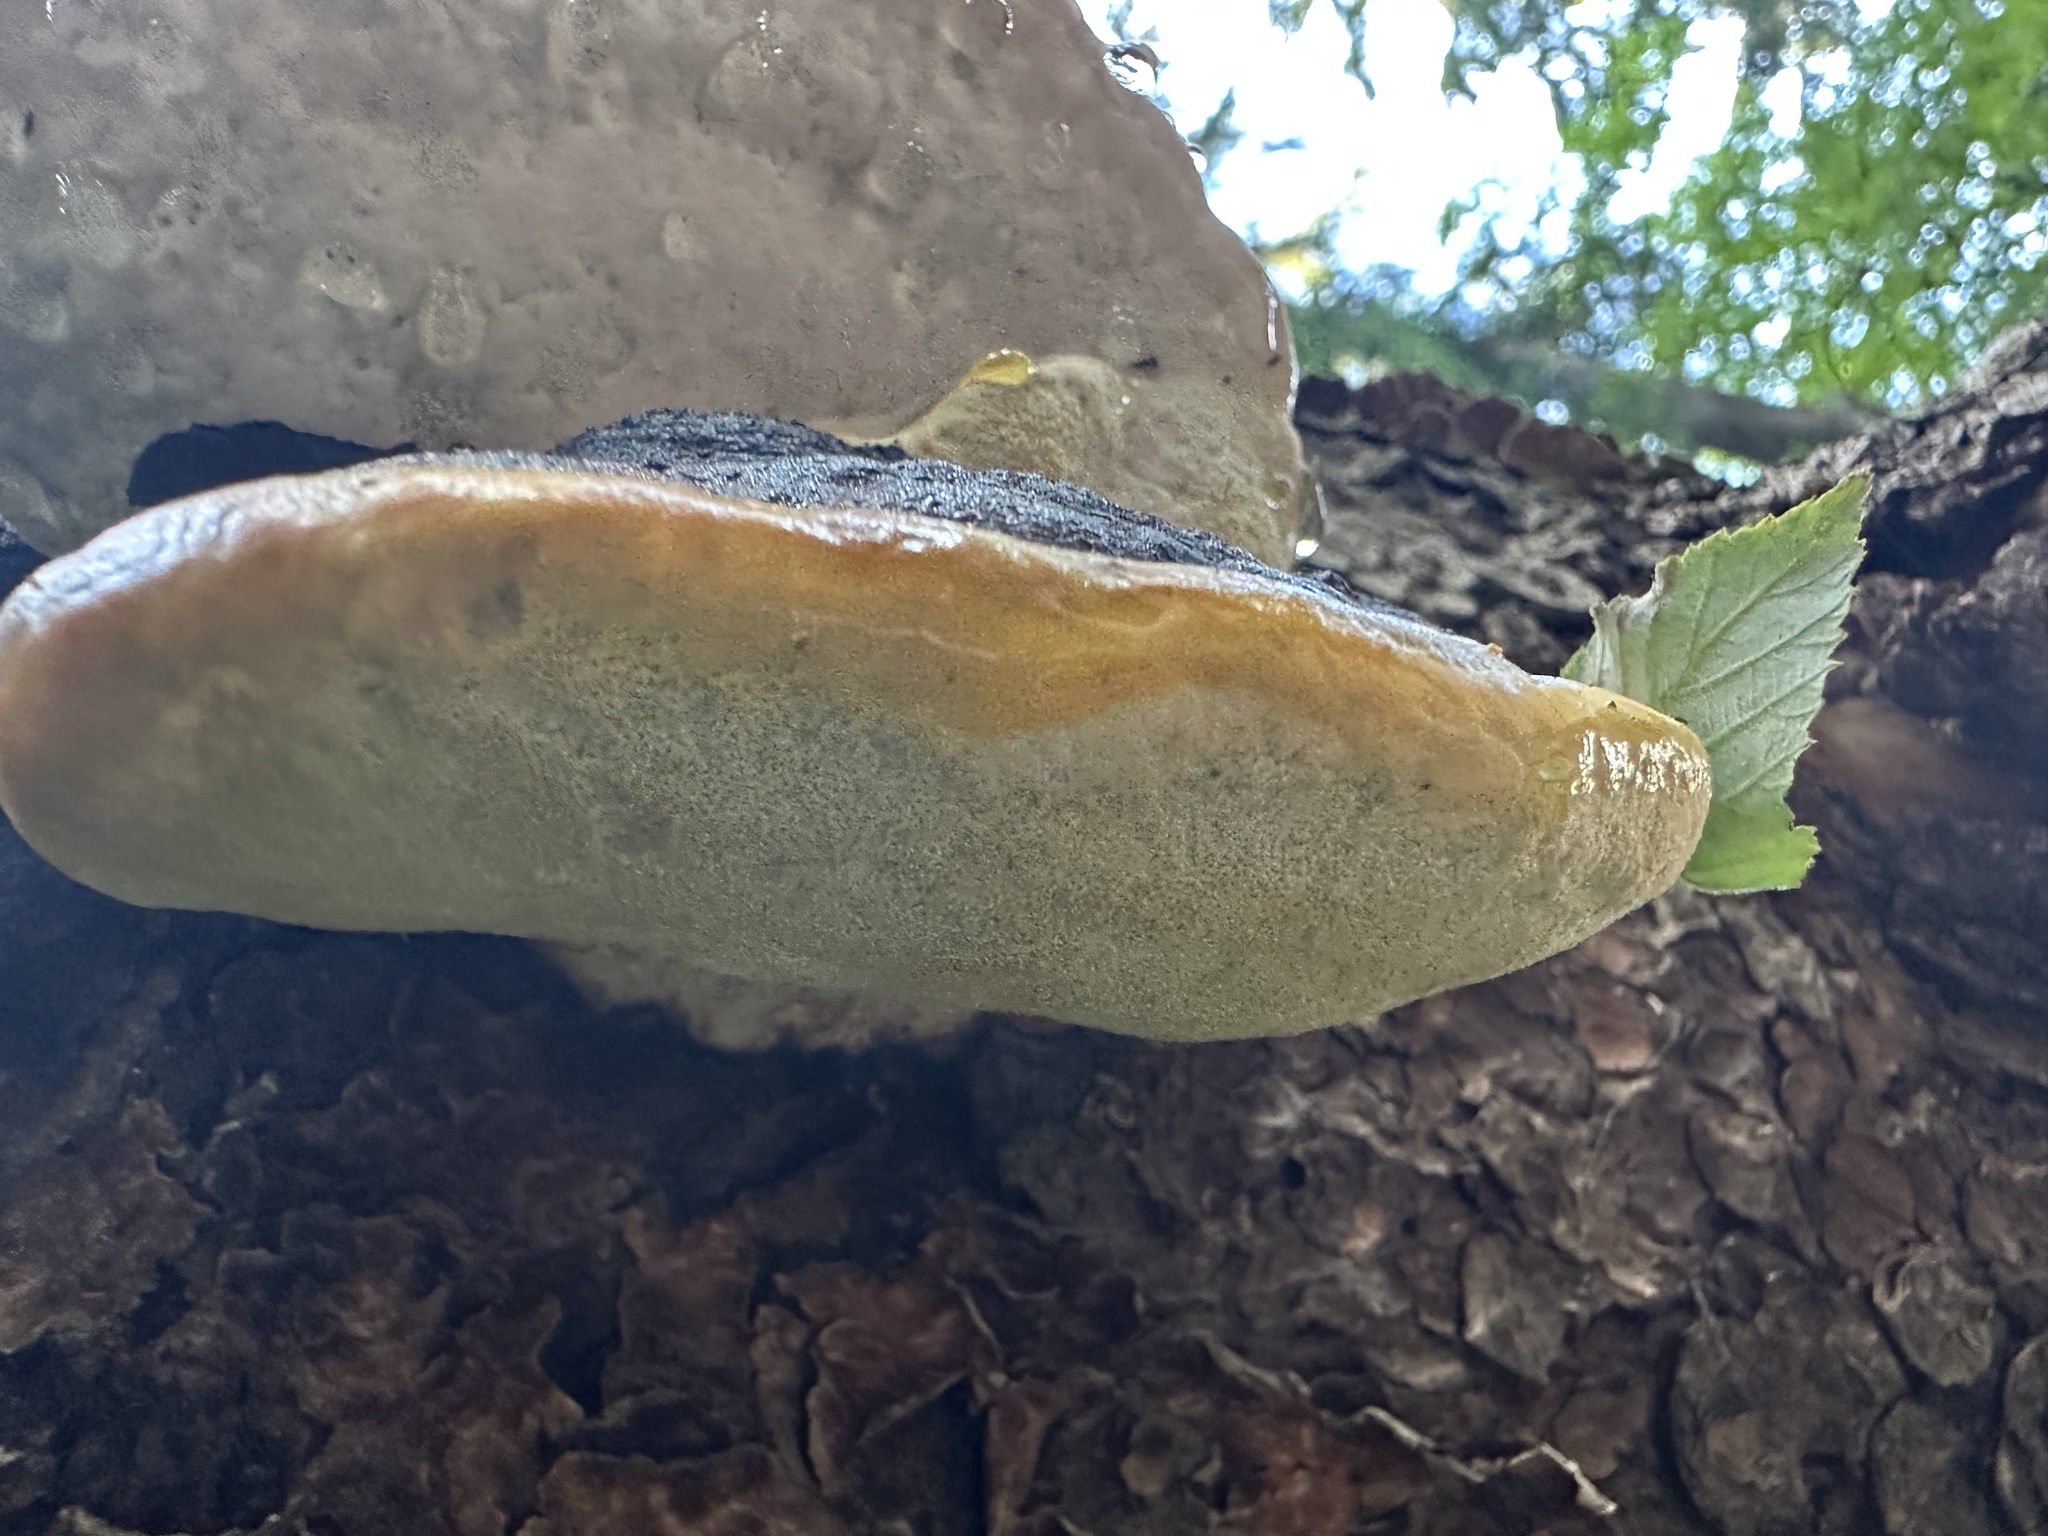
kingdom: Fungi
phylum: Basidiomycota
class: Agaricomycetes
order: Polyporales
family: Fomitopsidaceae
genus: Fomitopsis
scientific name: Fomitopsis pinicola
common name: Red-belted bracket
